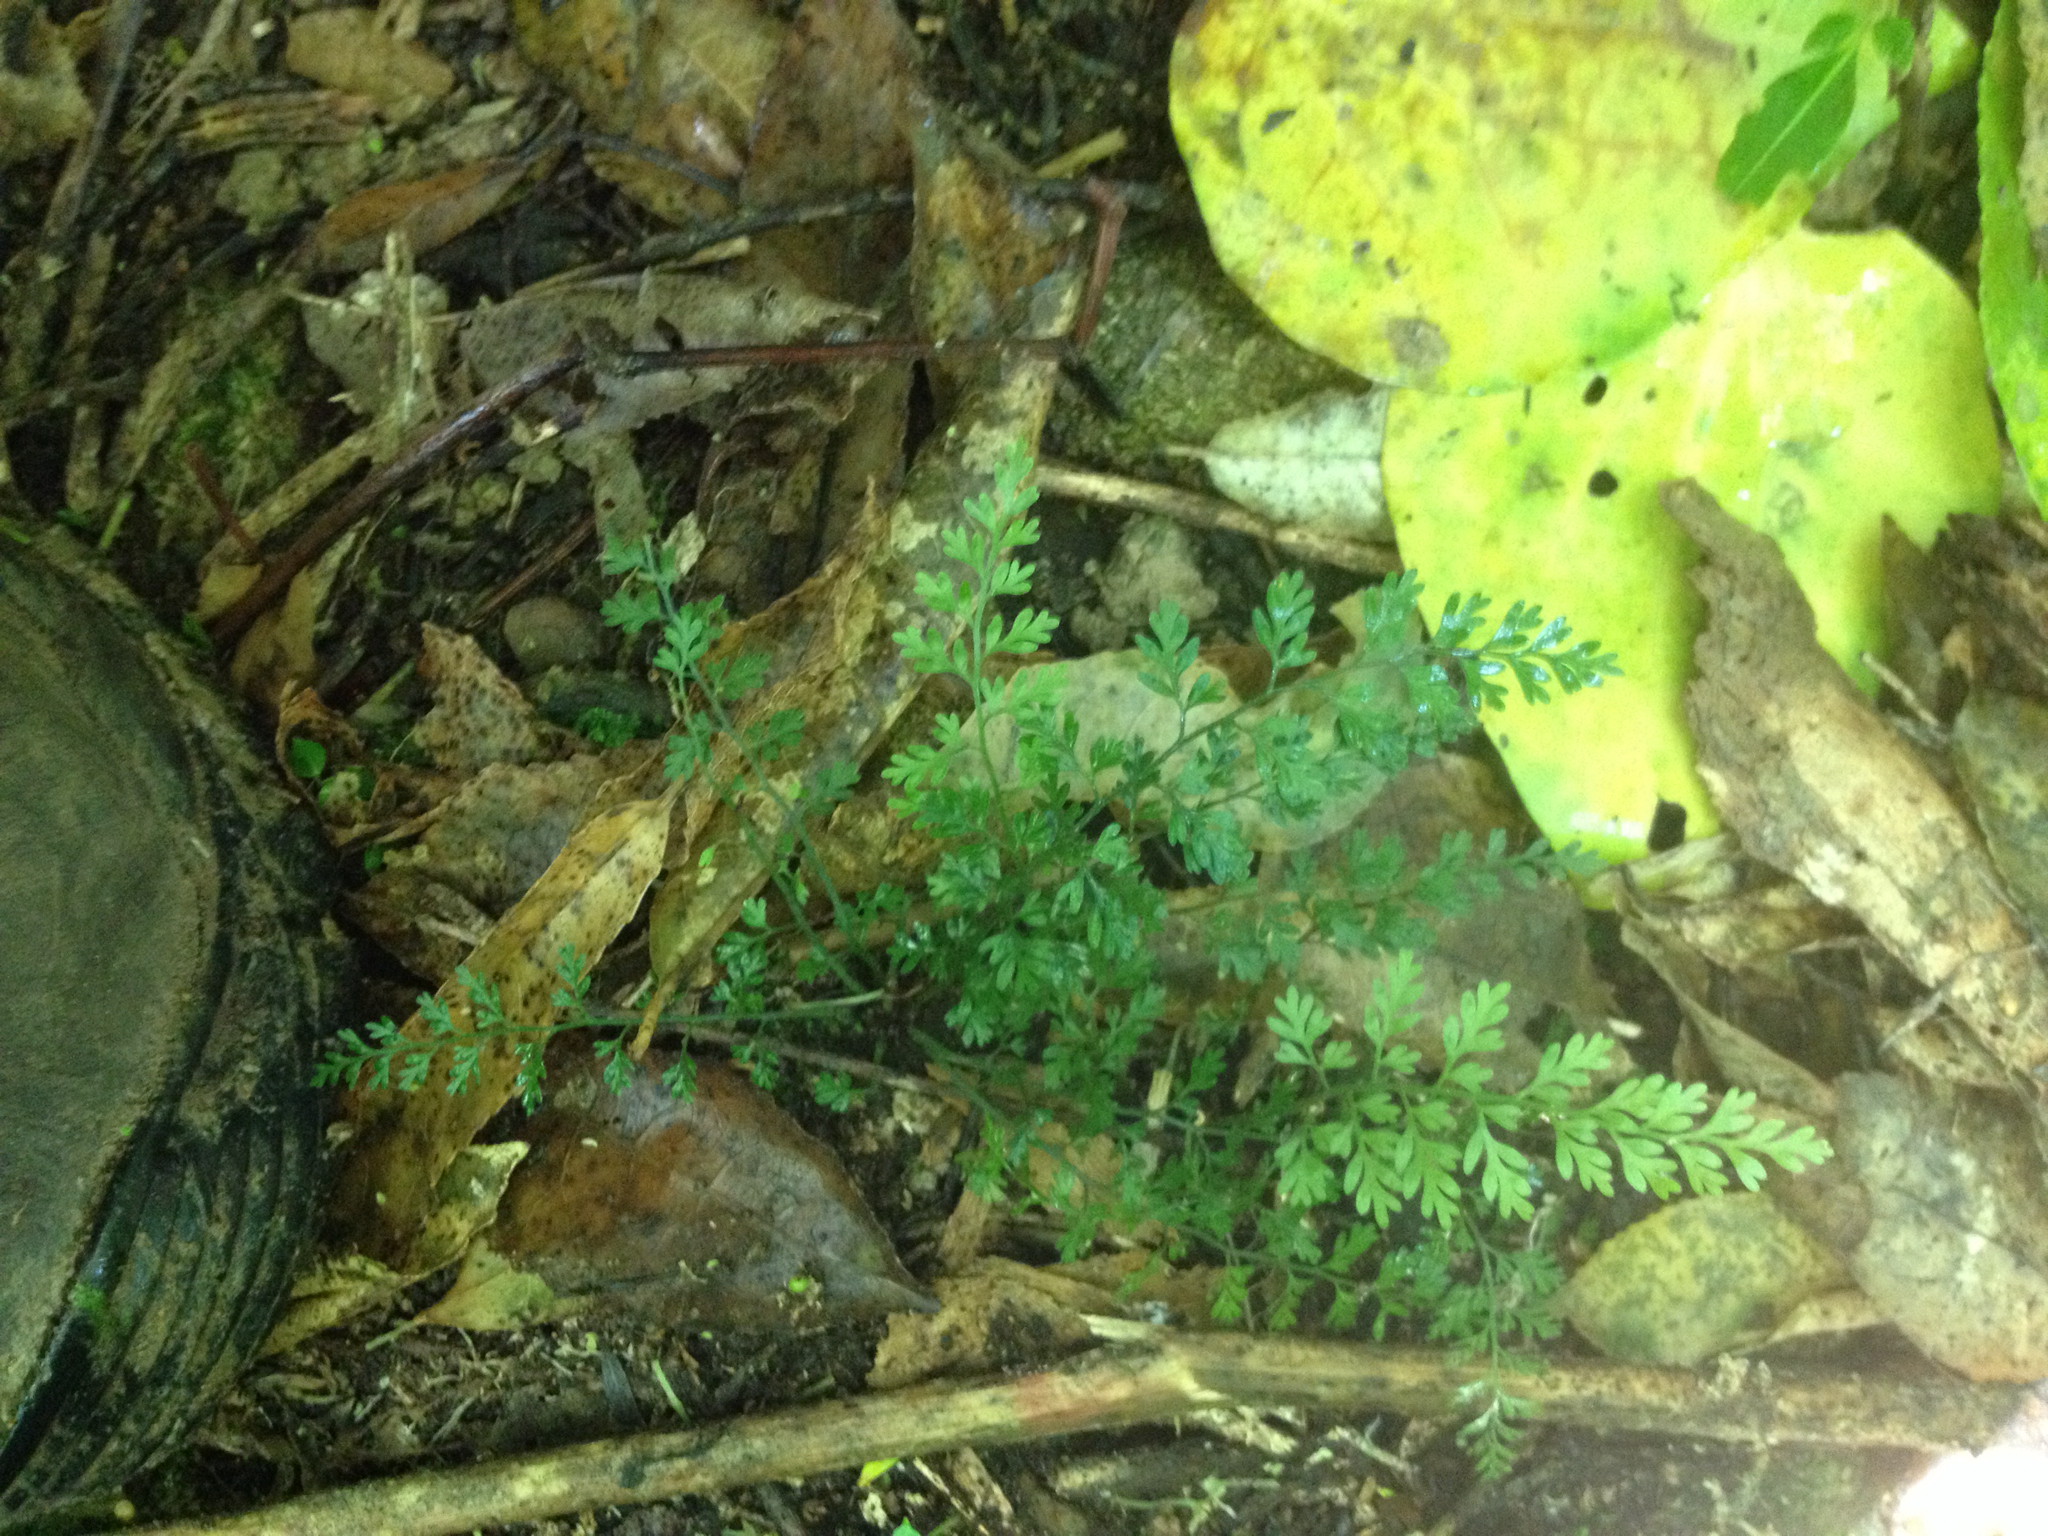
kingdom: Plantae
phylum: Tracheophyta
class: Polypodiopsida
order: Polypodiales
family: Aspleniaceae
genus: Asplenium
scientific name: Asplenium hookerianum
